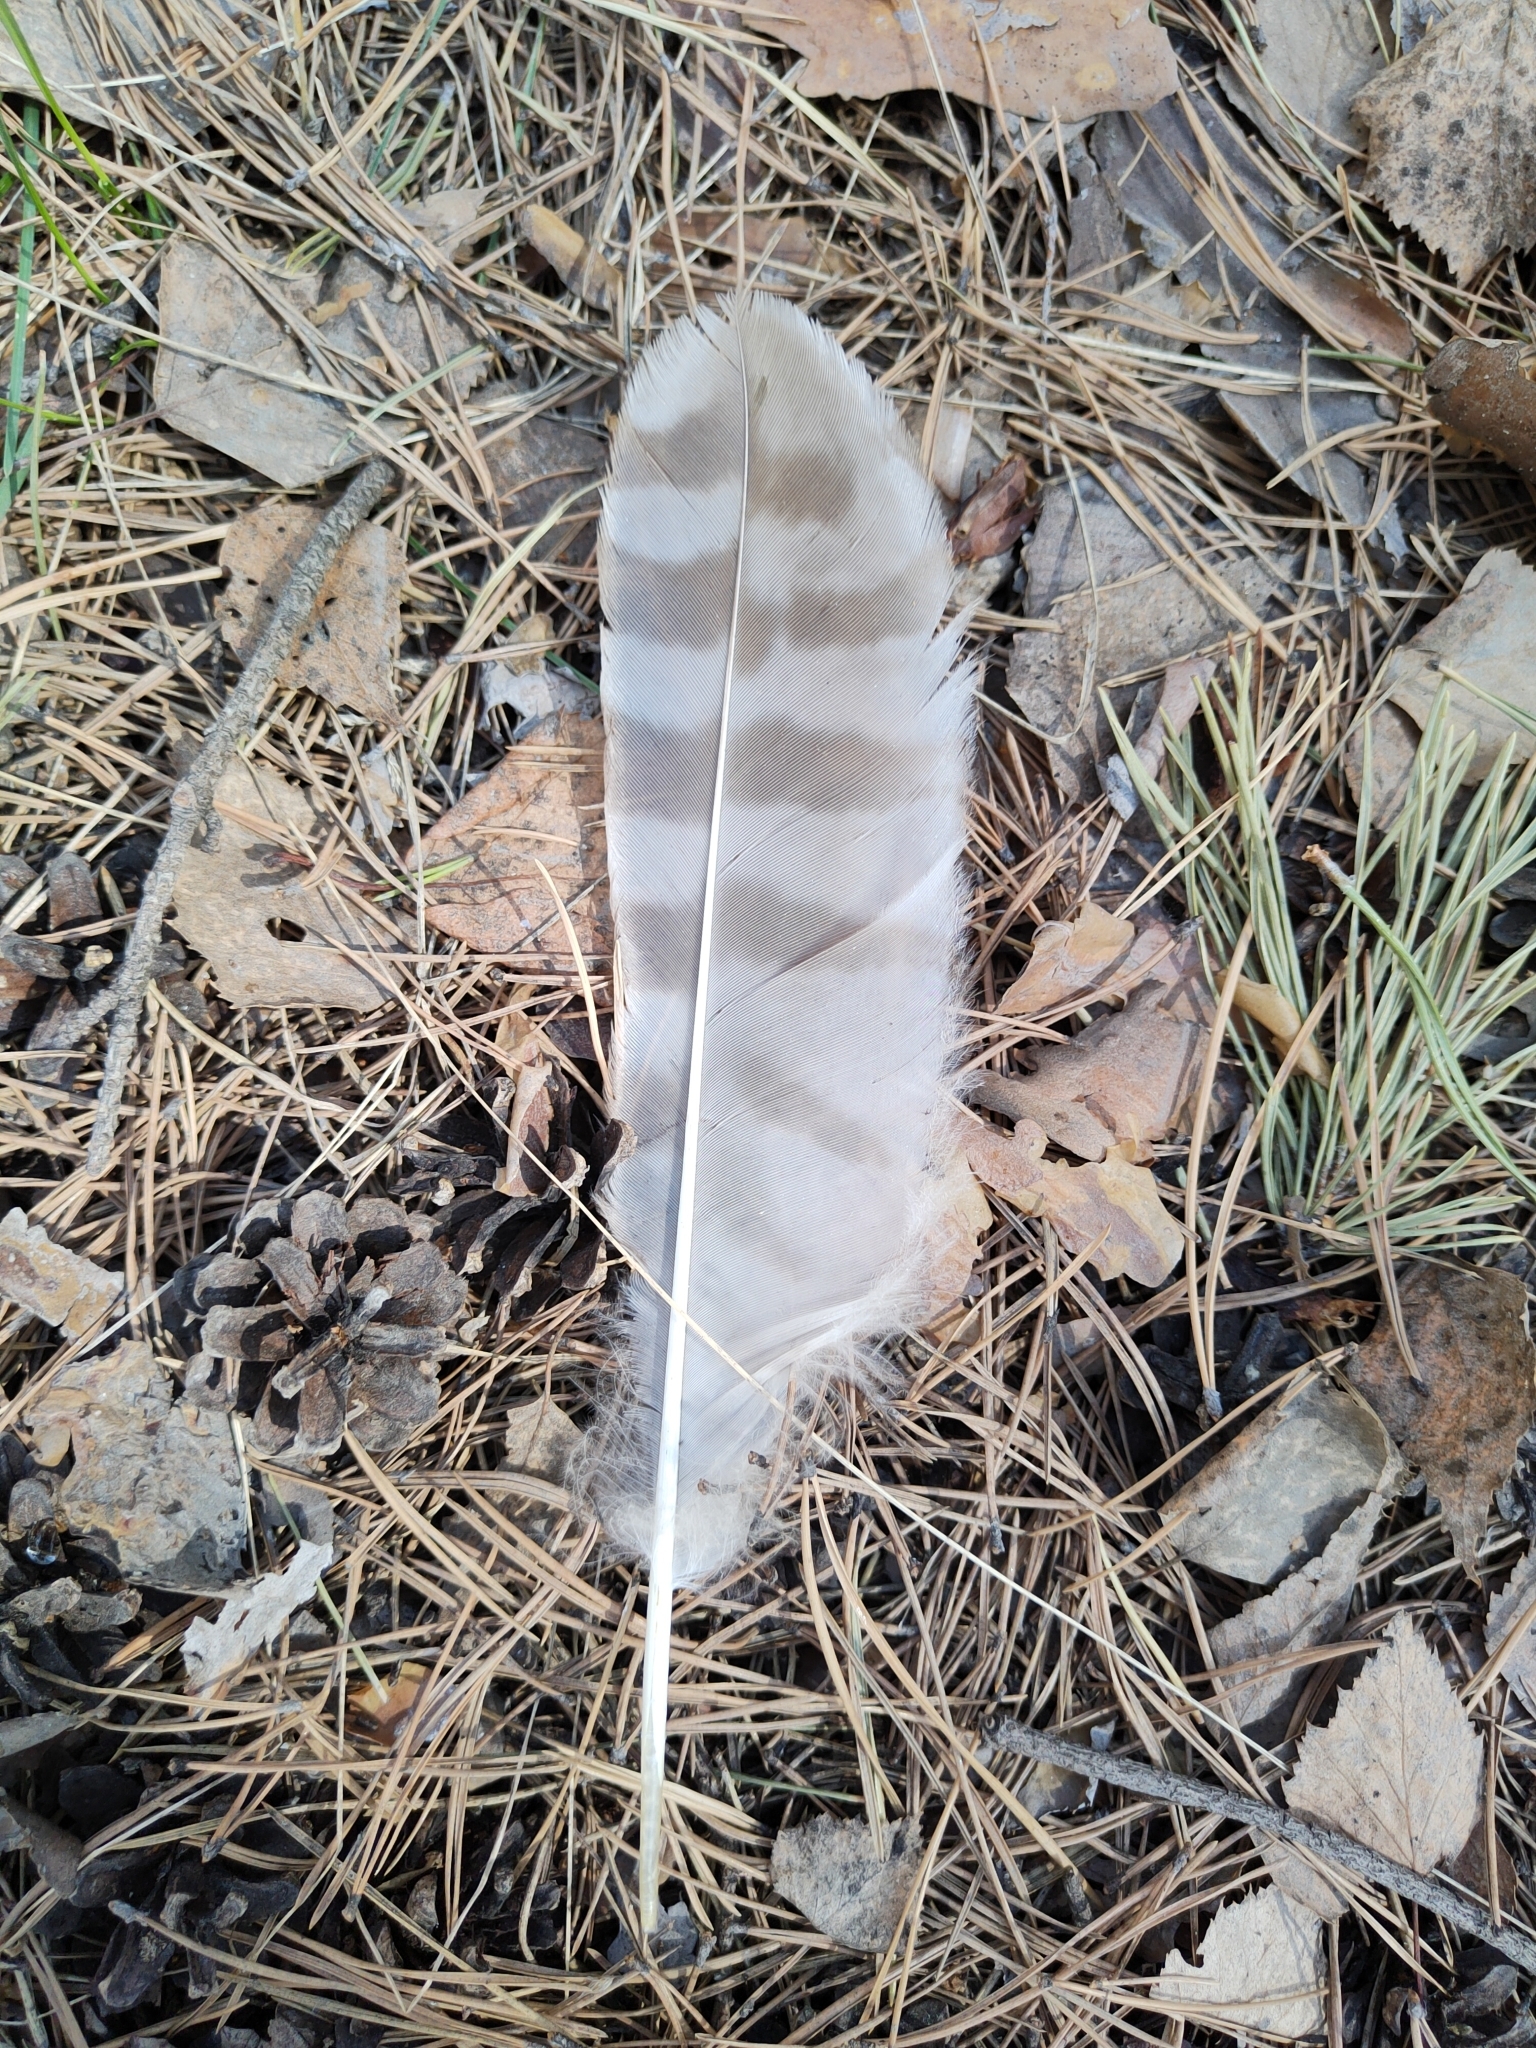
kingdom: Animalia
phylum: Chordata
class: Aves
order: Strigiformes
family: Strigidae
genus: Strix
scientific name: Strix uralensis
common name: Ural owl
